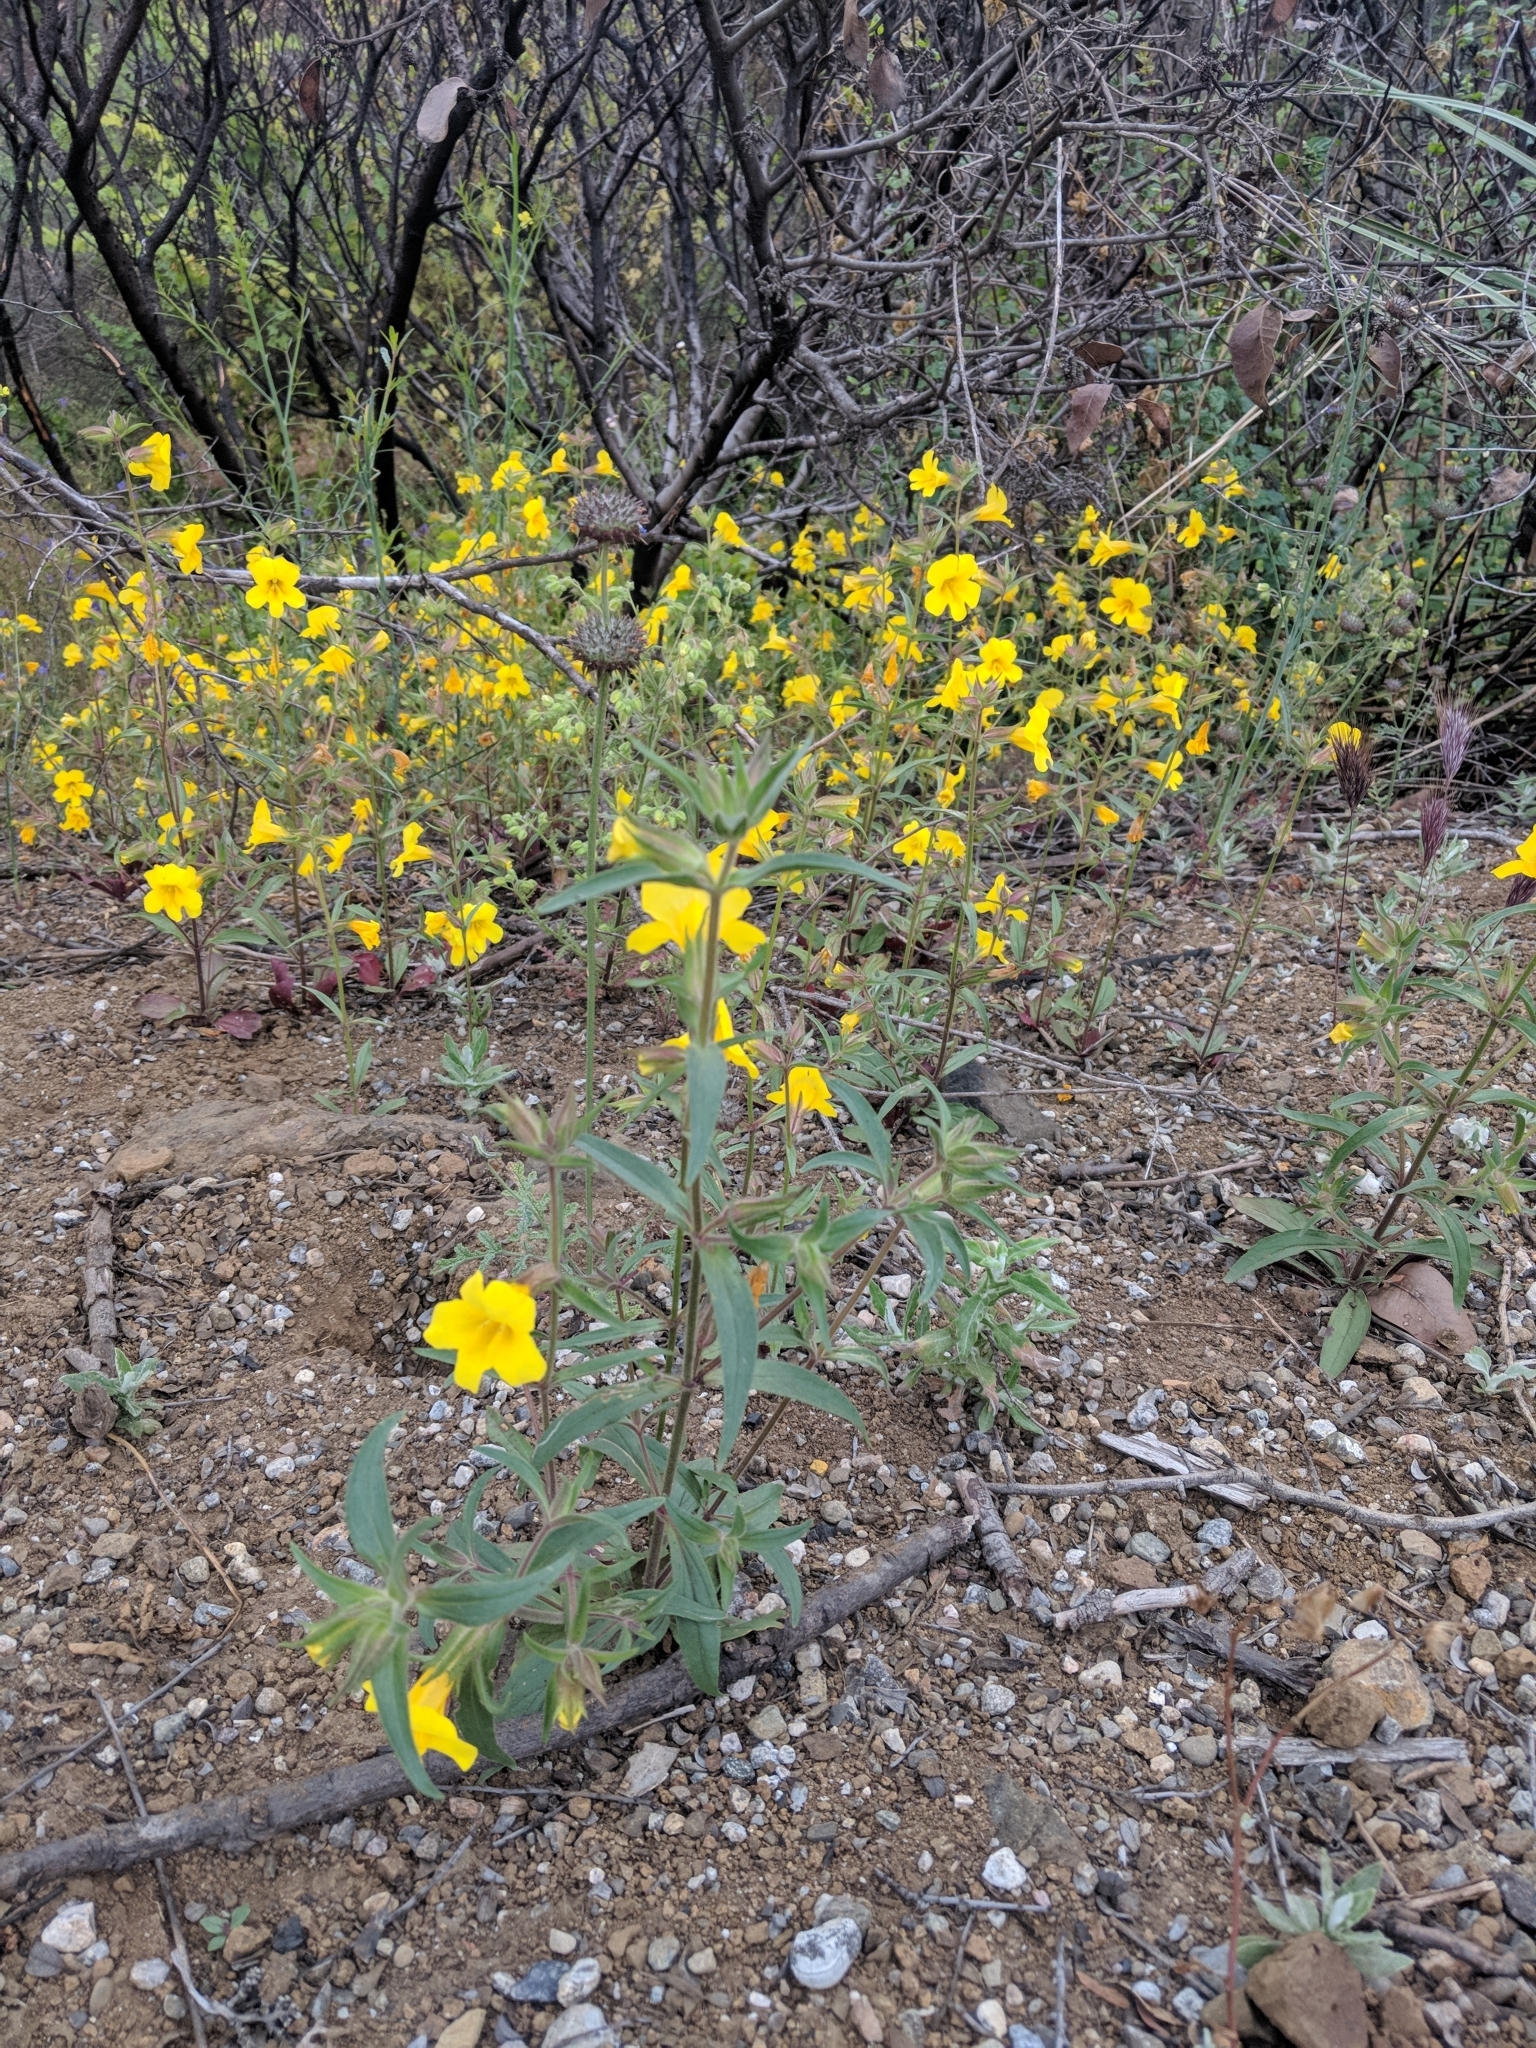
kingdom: Plantae
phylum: Tracheophyta
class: Magnoliopsida
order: Lamiales
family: Phrymaceae
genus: Diplacus
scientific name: Diplacus brevipes
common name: Wide-throat yellow monkey-flower
